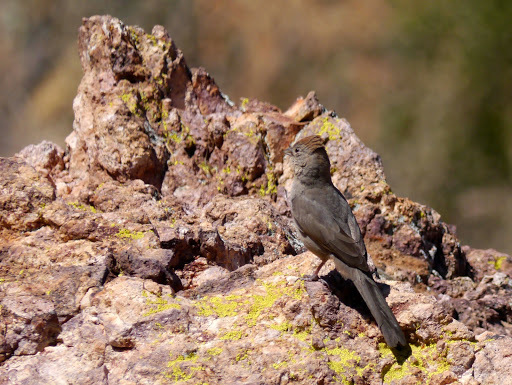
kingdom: Animalia
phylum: Chordata
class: Aves
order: Passeriformes
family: Passerellidae
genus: Melozone
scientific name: Melozone fusca
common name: Canyon towhee
